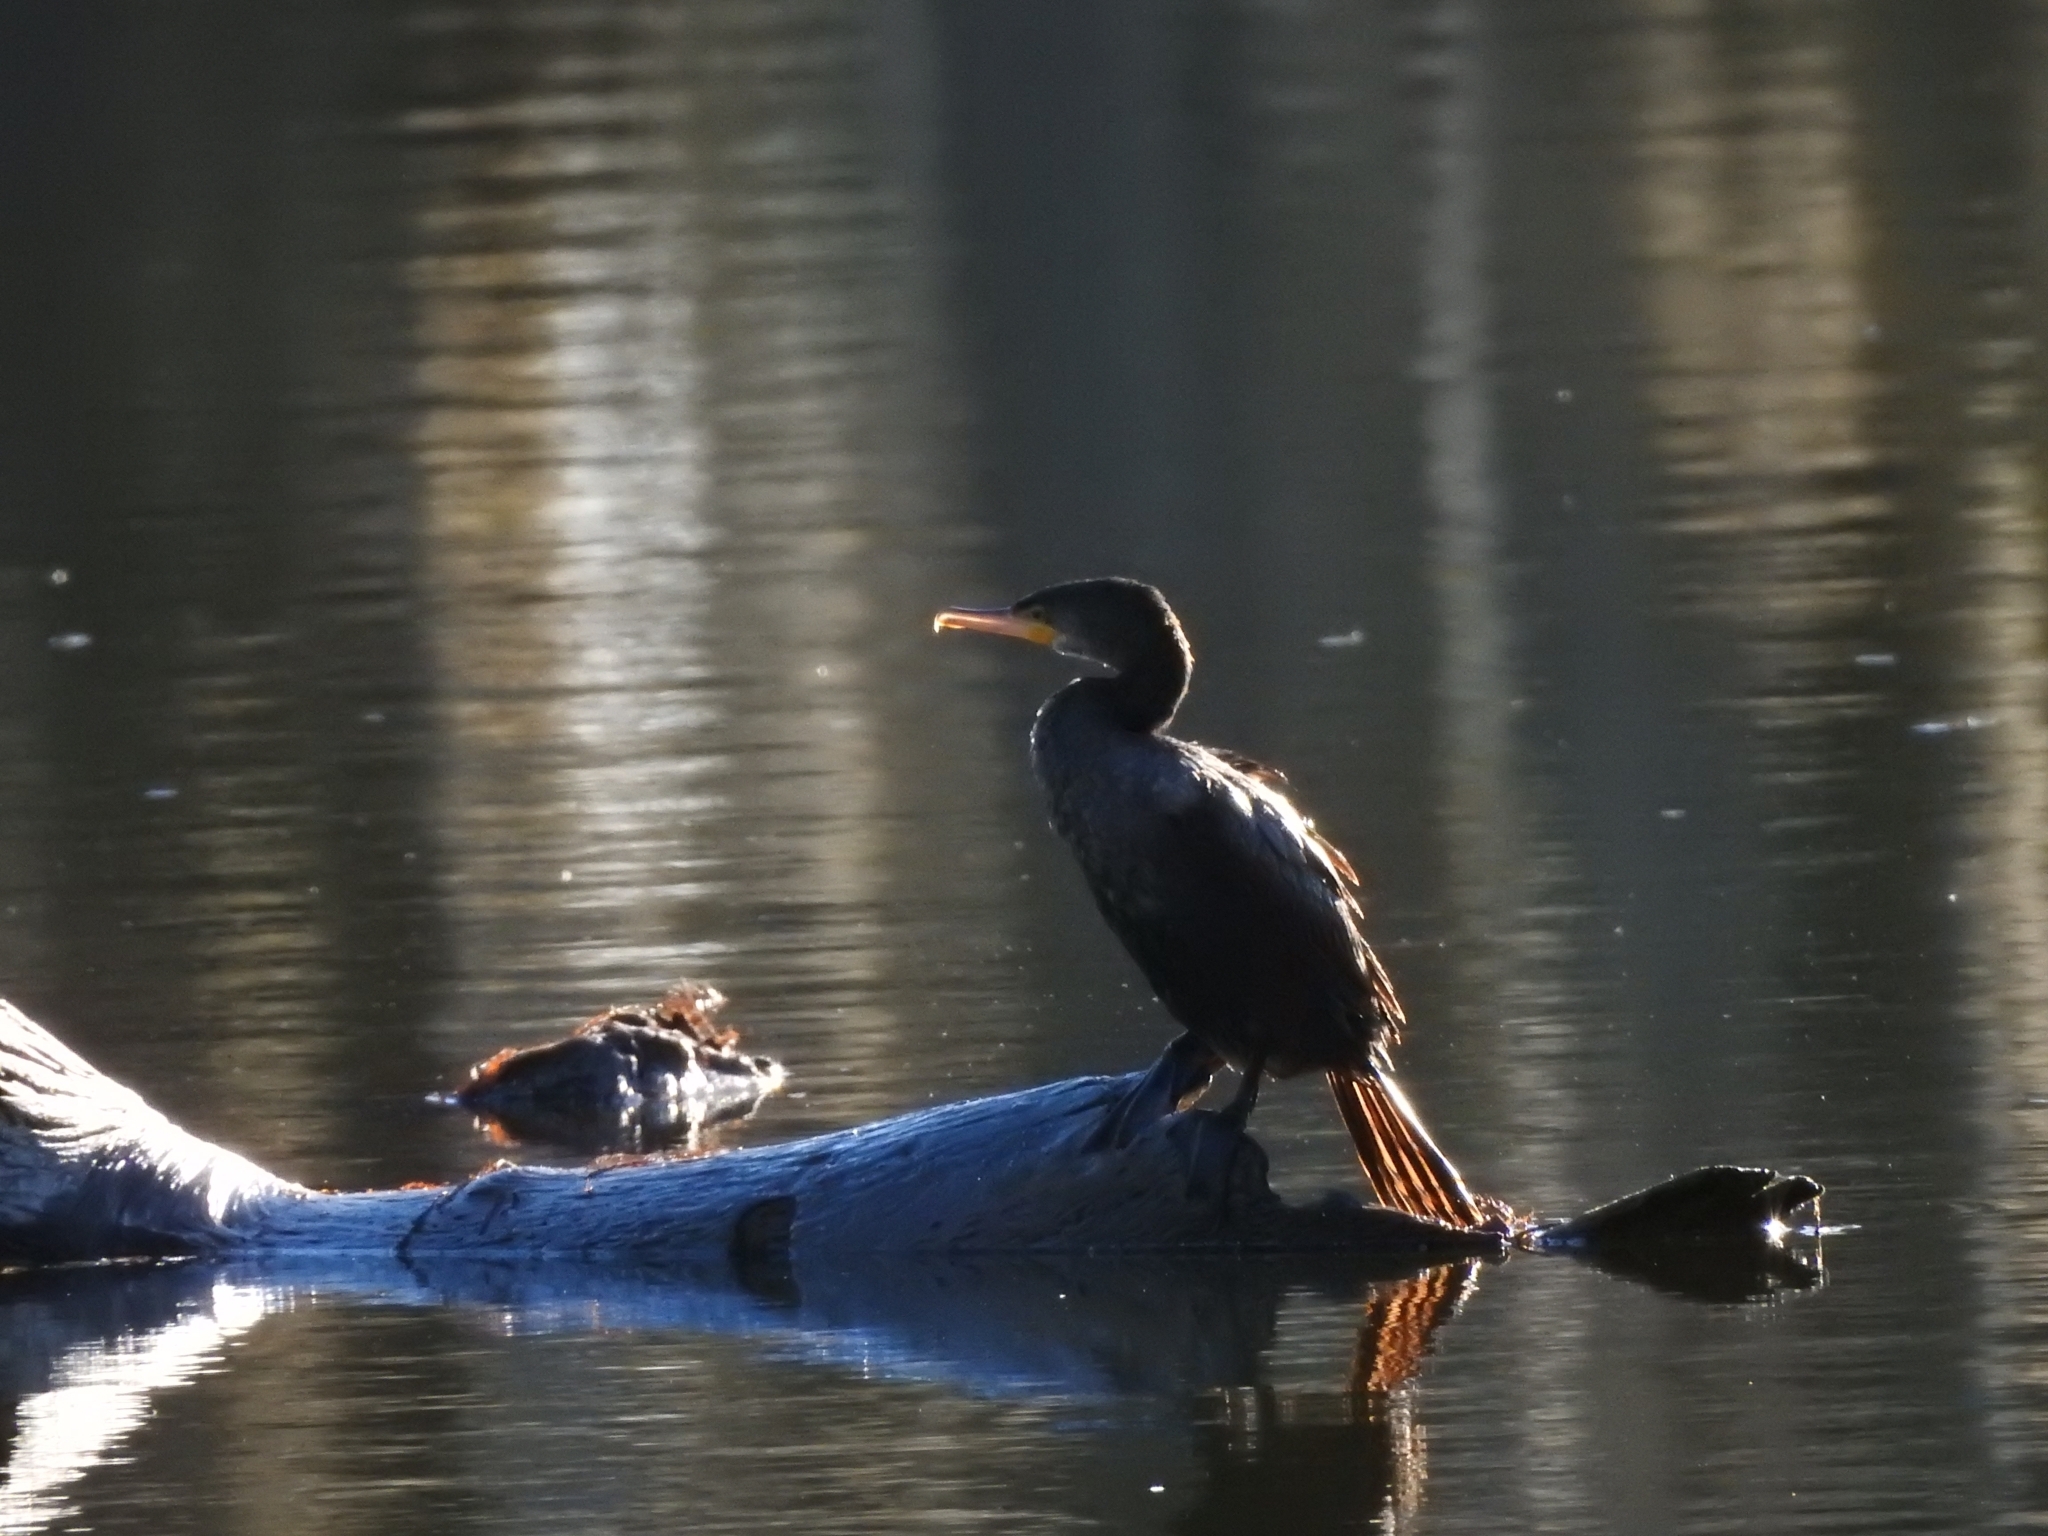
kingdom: Animalia
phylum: Chordata
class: Aves
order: Suliformes
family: Phalacrocoracidae
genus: Phalacrocorax
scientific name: Phalacrocorax brasilianus
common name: Neotropic cormorant
